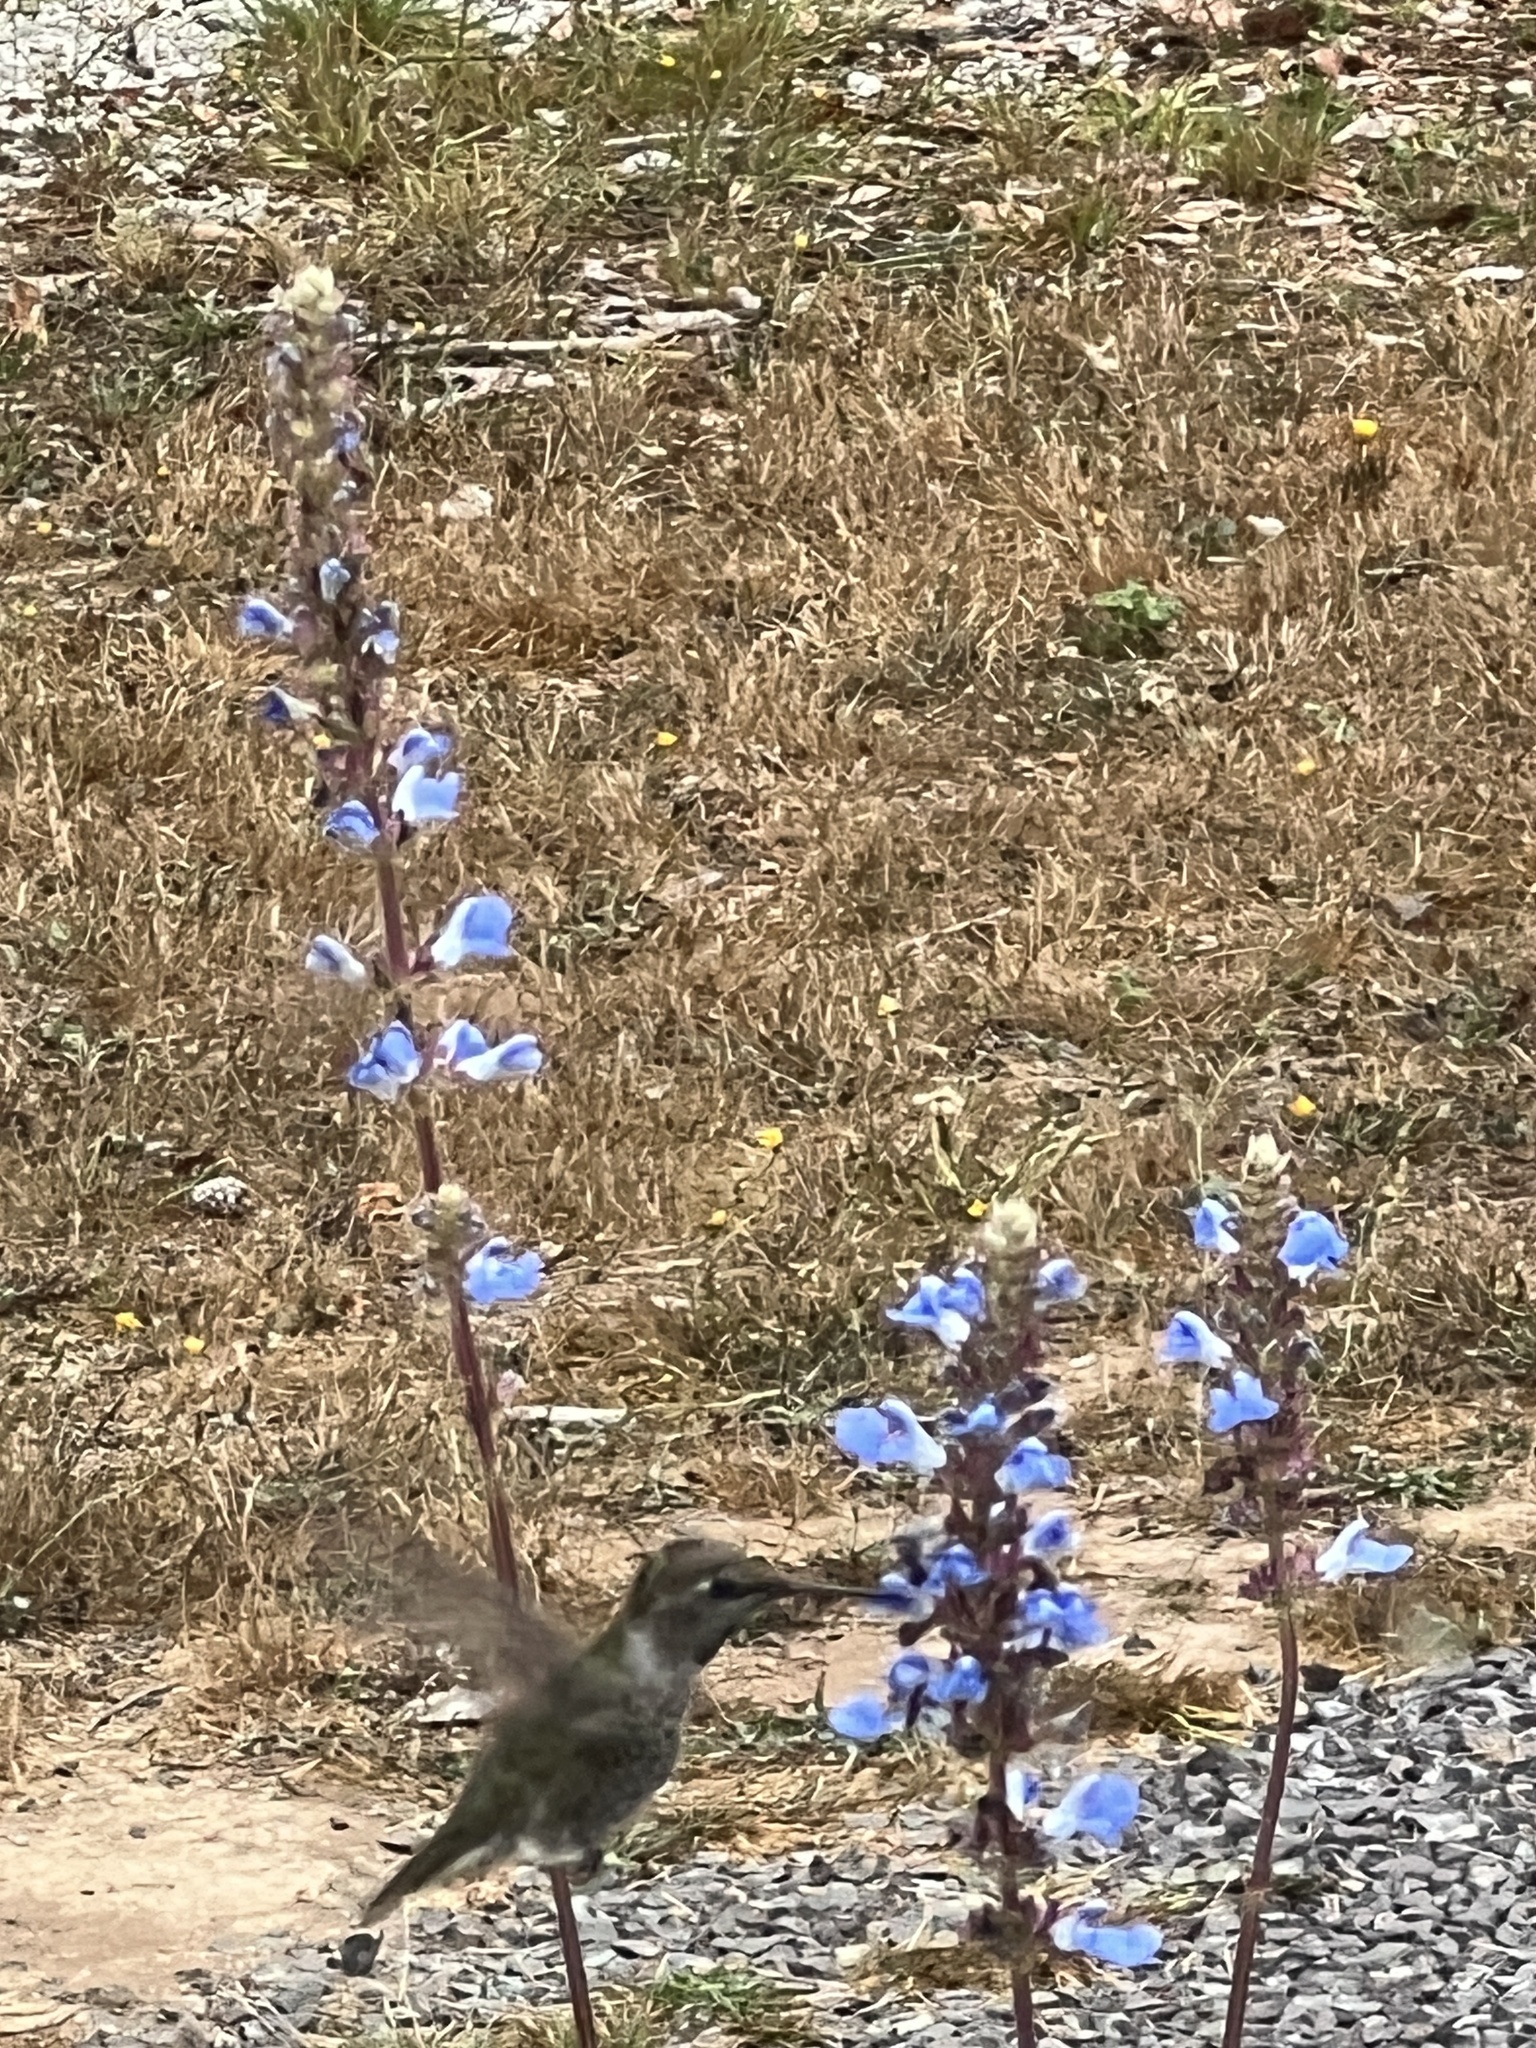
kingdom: Animalia
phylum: Chordata
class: Aves
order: Apodiformes
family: Trochilidae
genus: Calypte
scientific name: Calypte anna
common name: Anna's hummingbird
